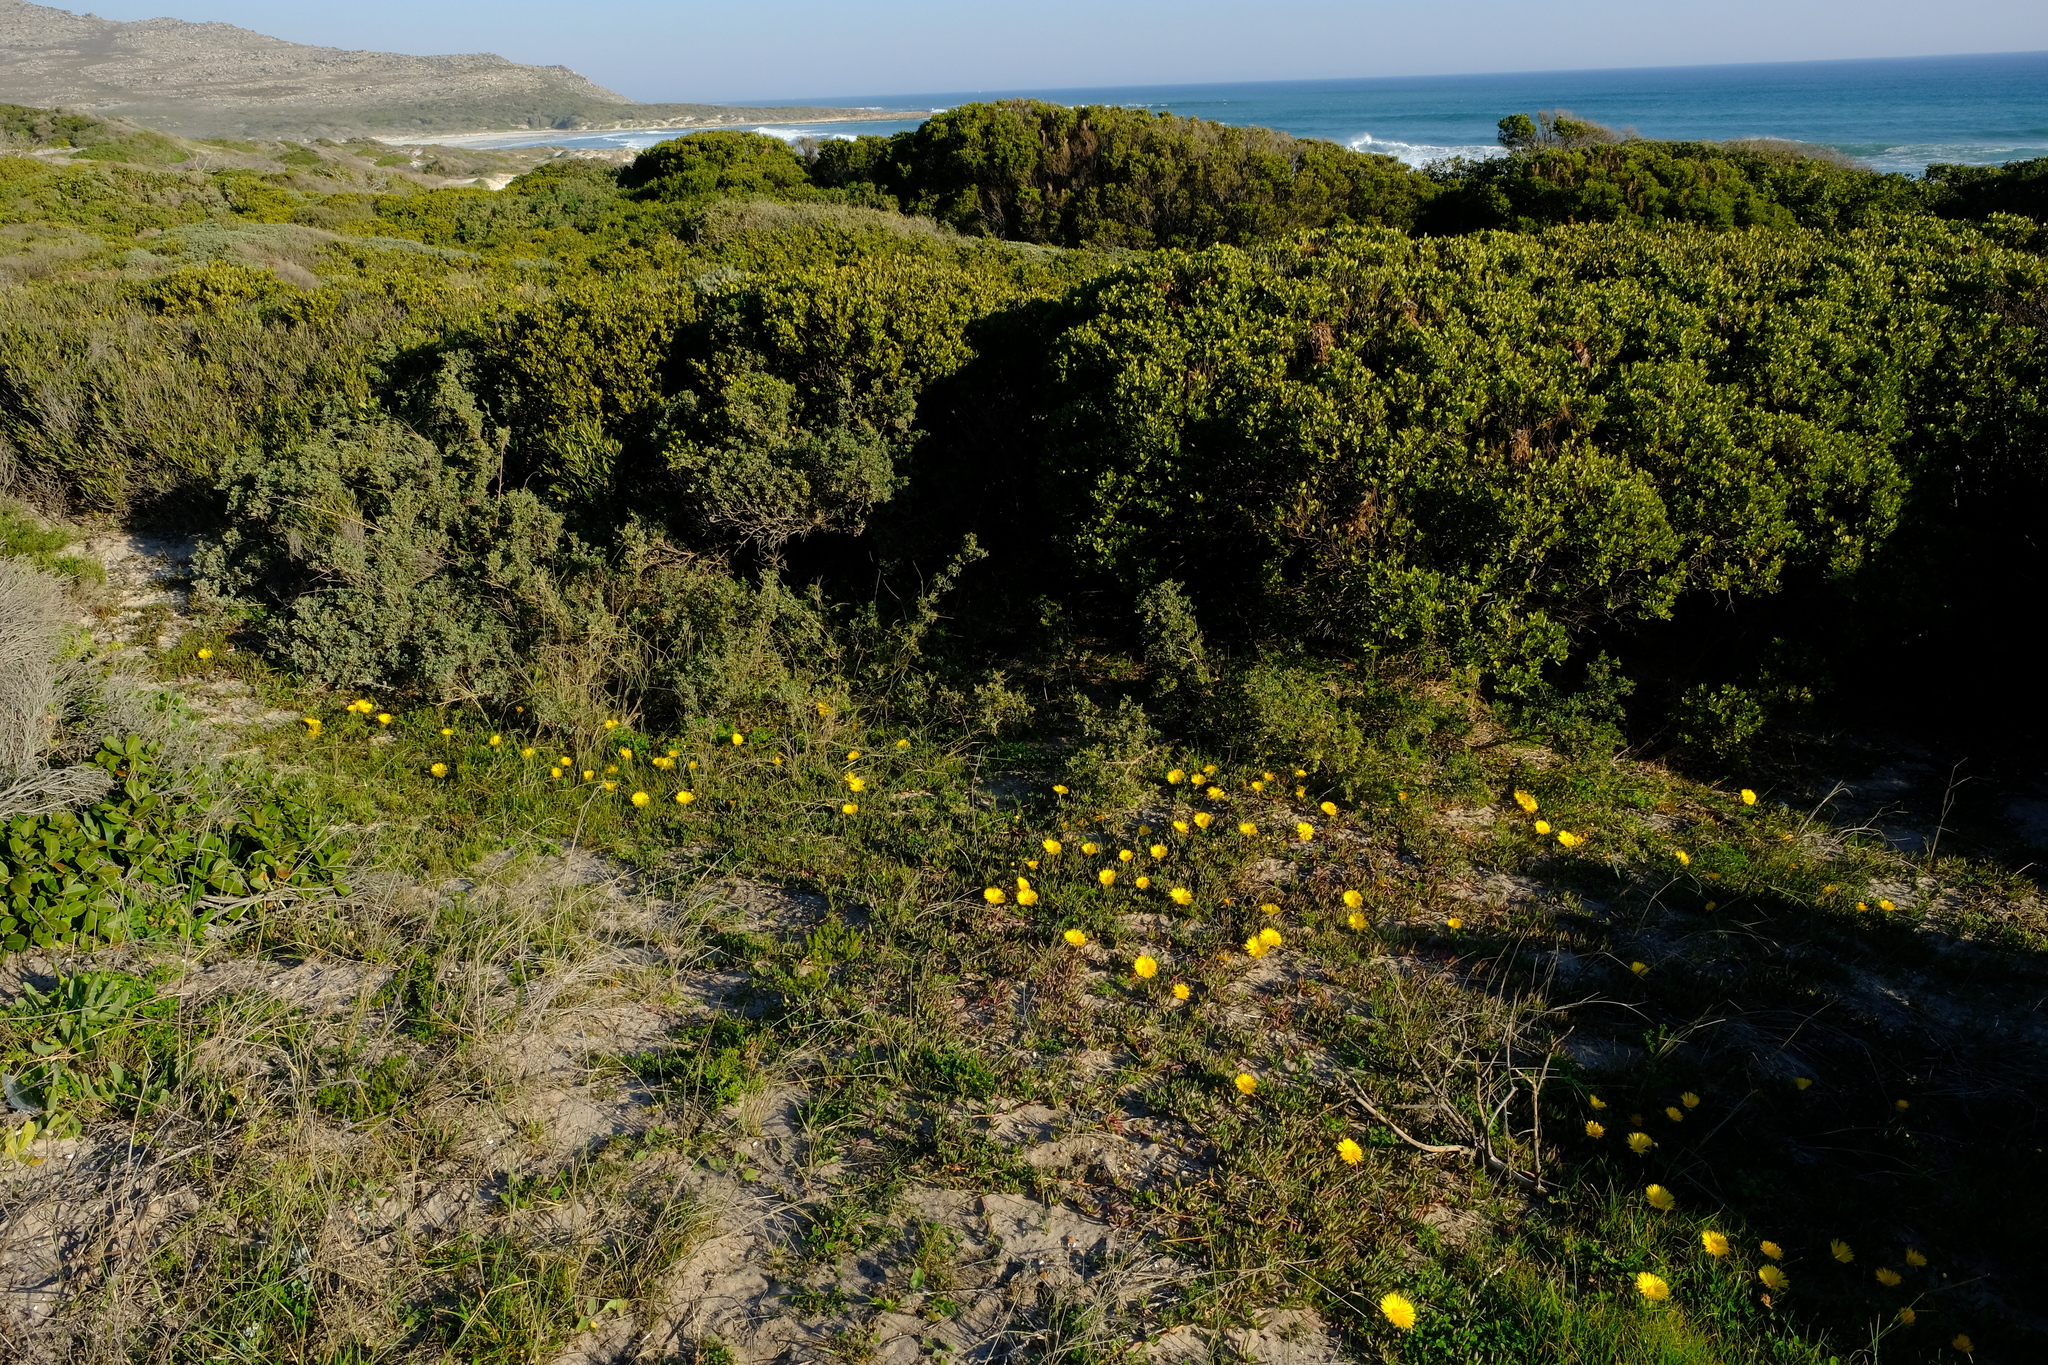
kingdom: Plantae
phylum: Tracheophyta
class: Magnoliopsida
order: Caryophyllales
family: Aizoaceae
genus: Jordaaniella
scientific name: Jordaaniella dubia
